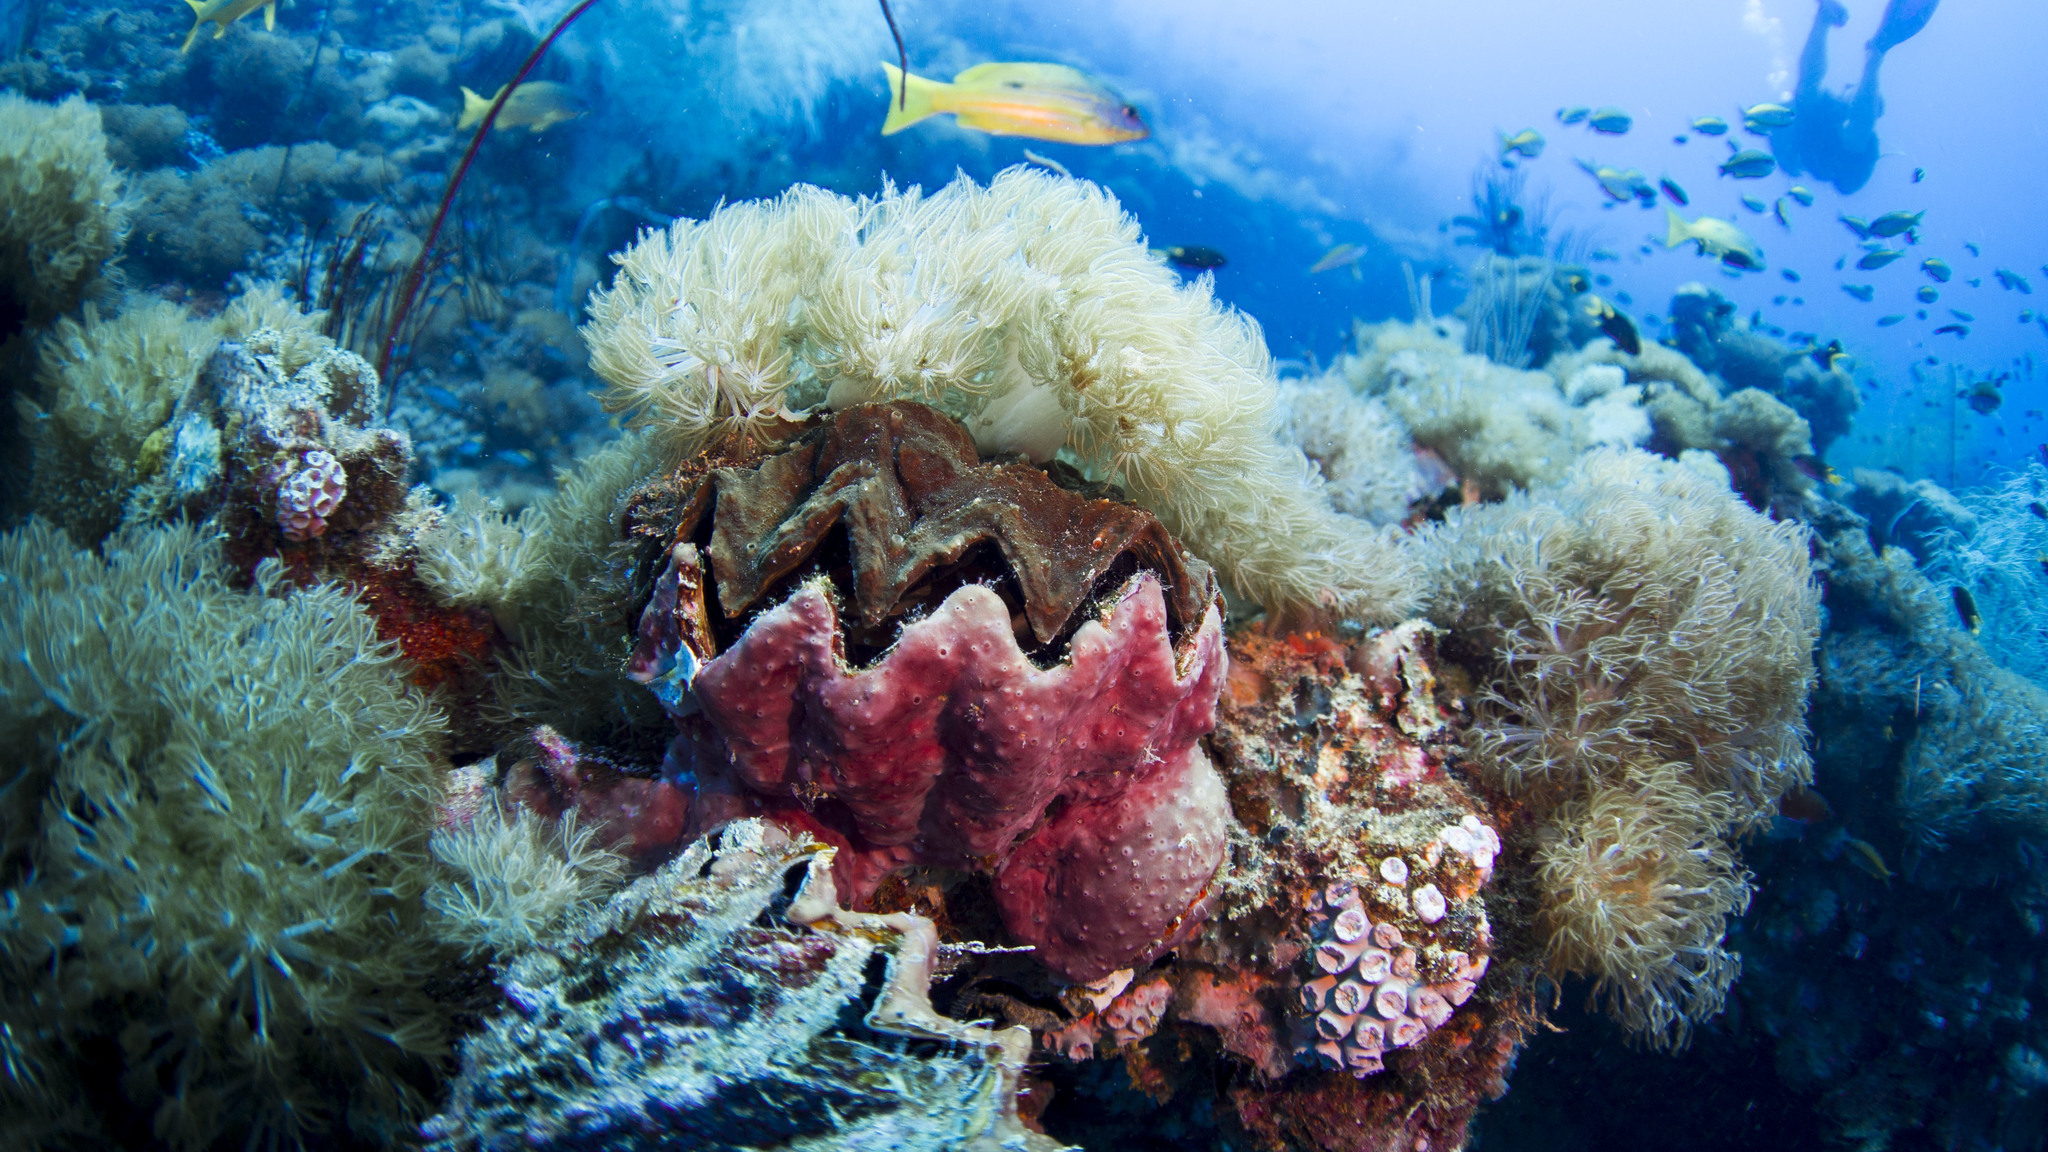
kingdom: Animalia
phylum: Mollusca
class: Bivalvia
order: Ostreida
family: Ostreidae
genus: Lopha
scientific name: Lopha cristagalli
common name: Cock's-comb oyster
